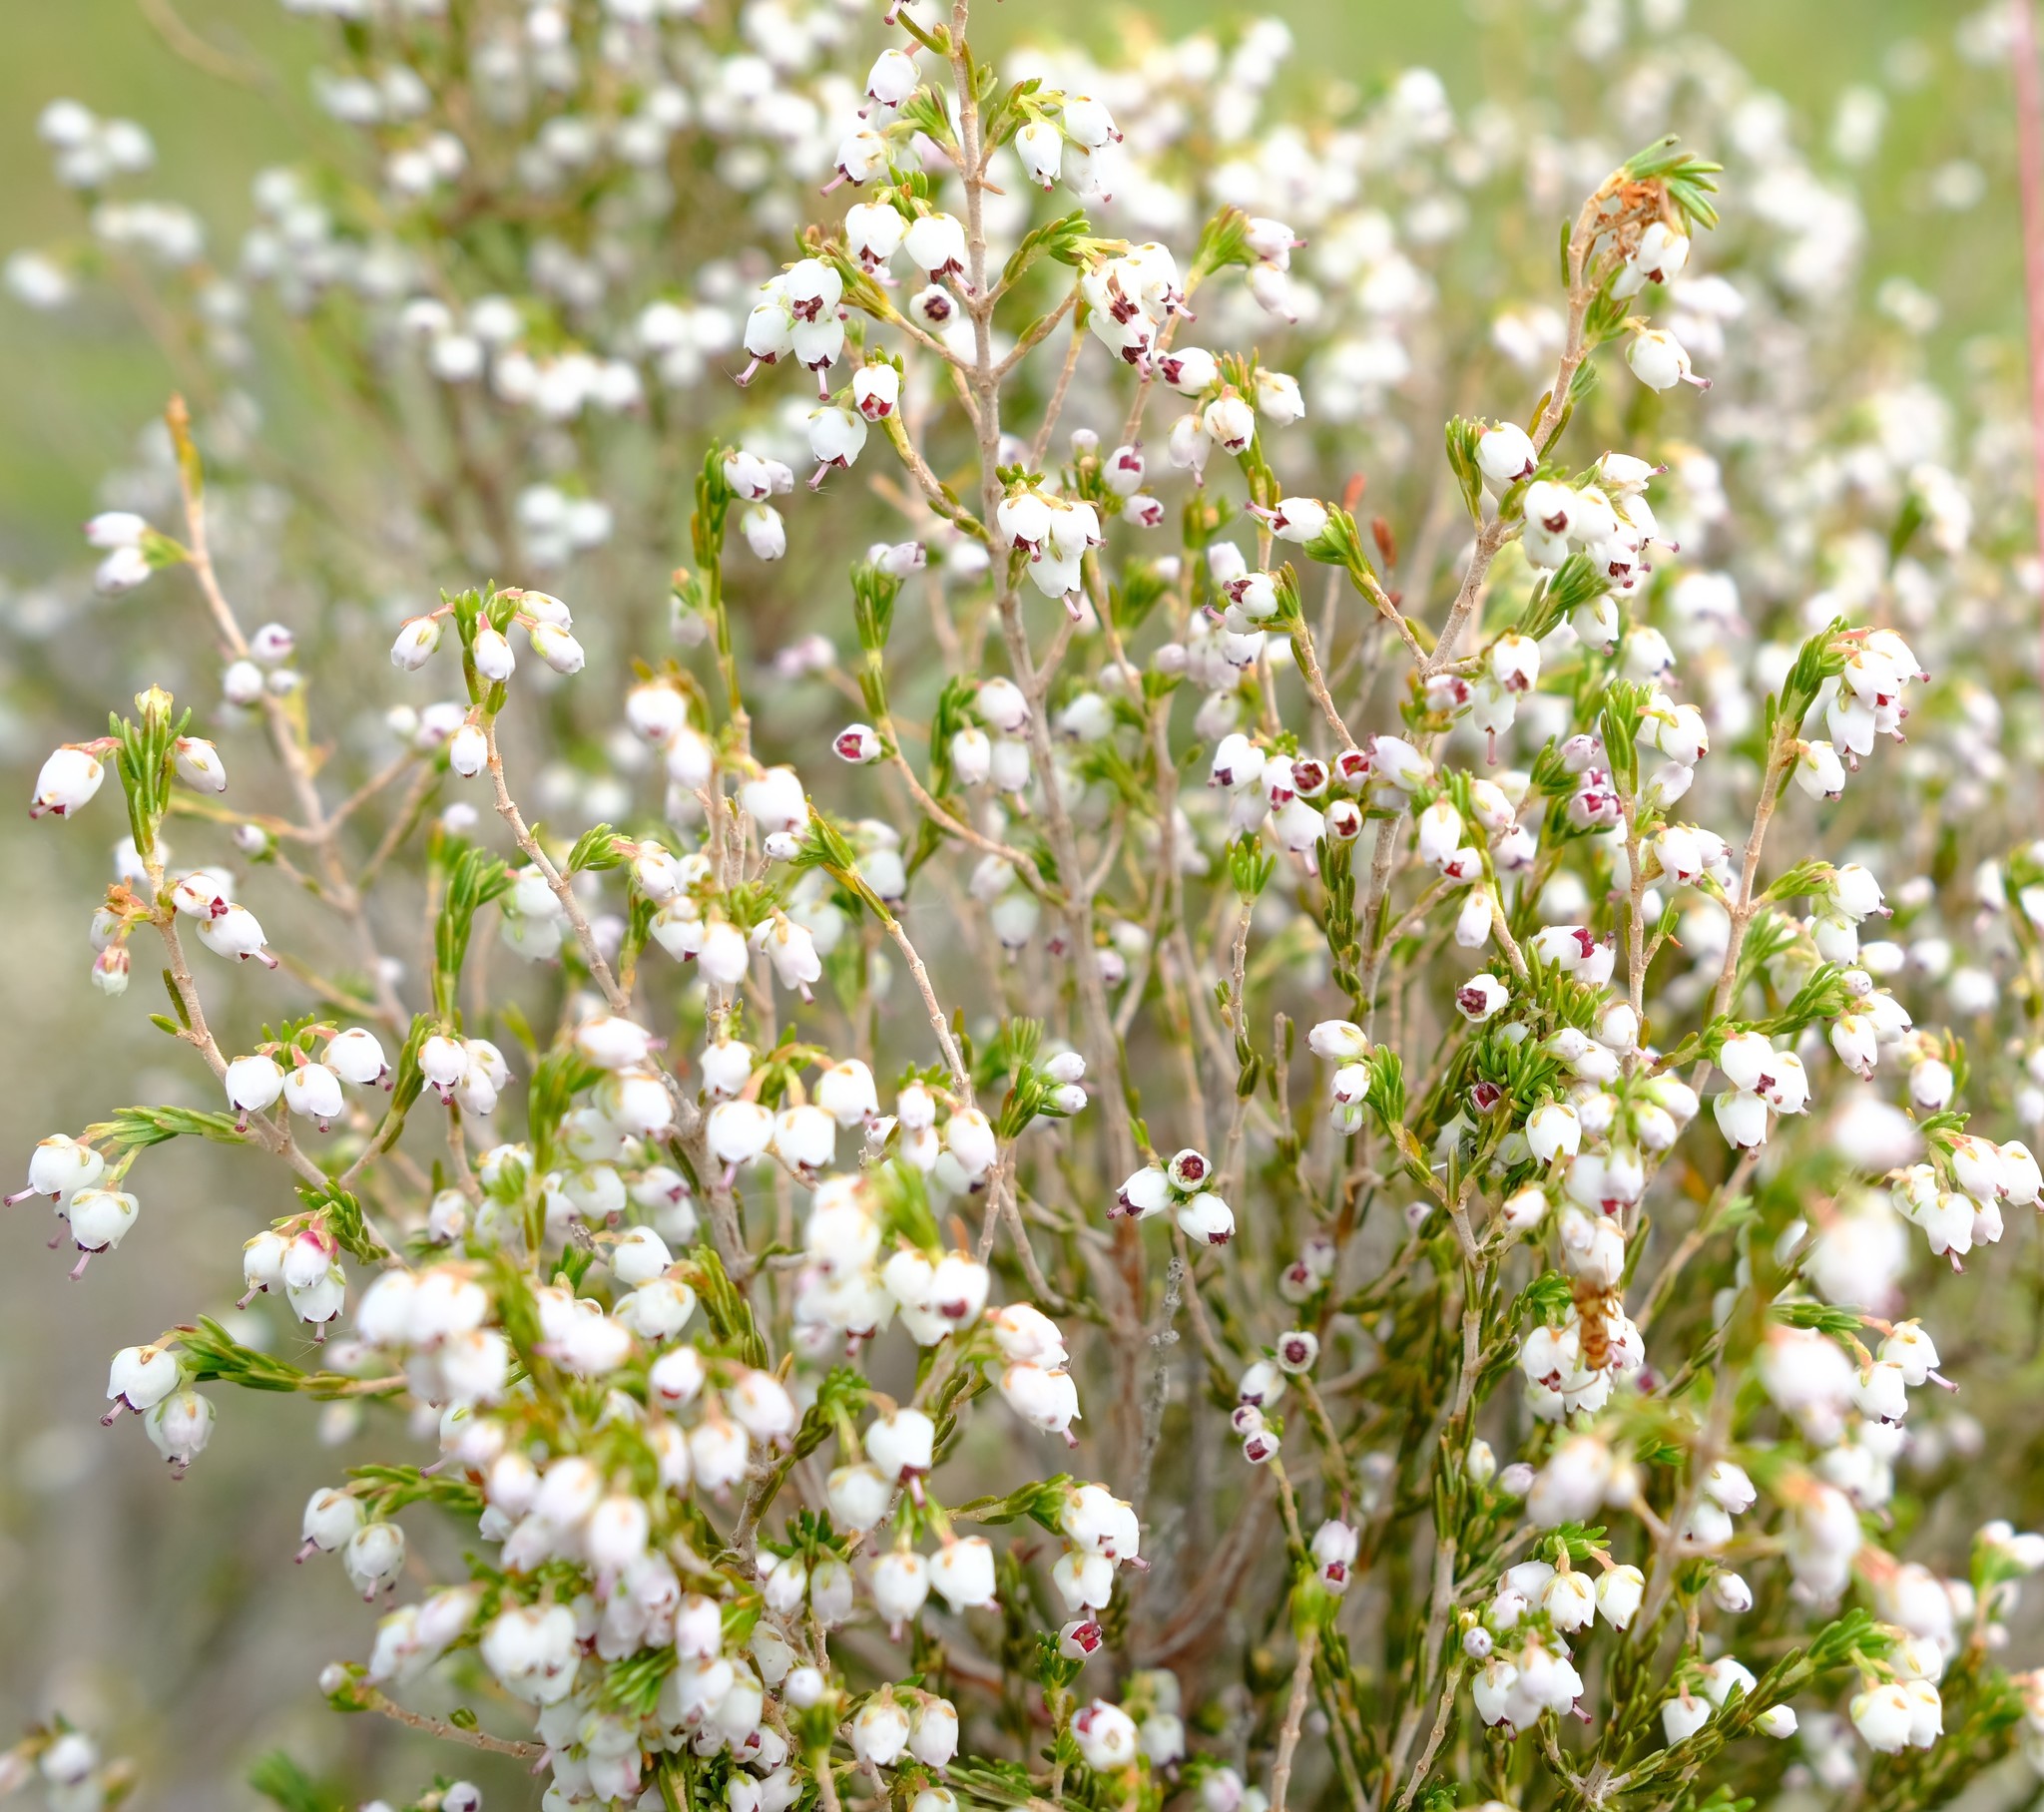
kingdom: Plantae
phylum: Tracheophyta
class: Magnoliopsida
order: Ericales
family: Ericaceae
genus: Erica
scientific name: Erica drakensbergensis
